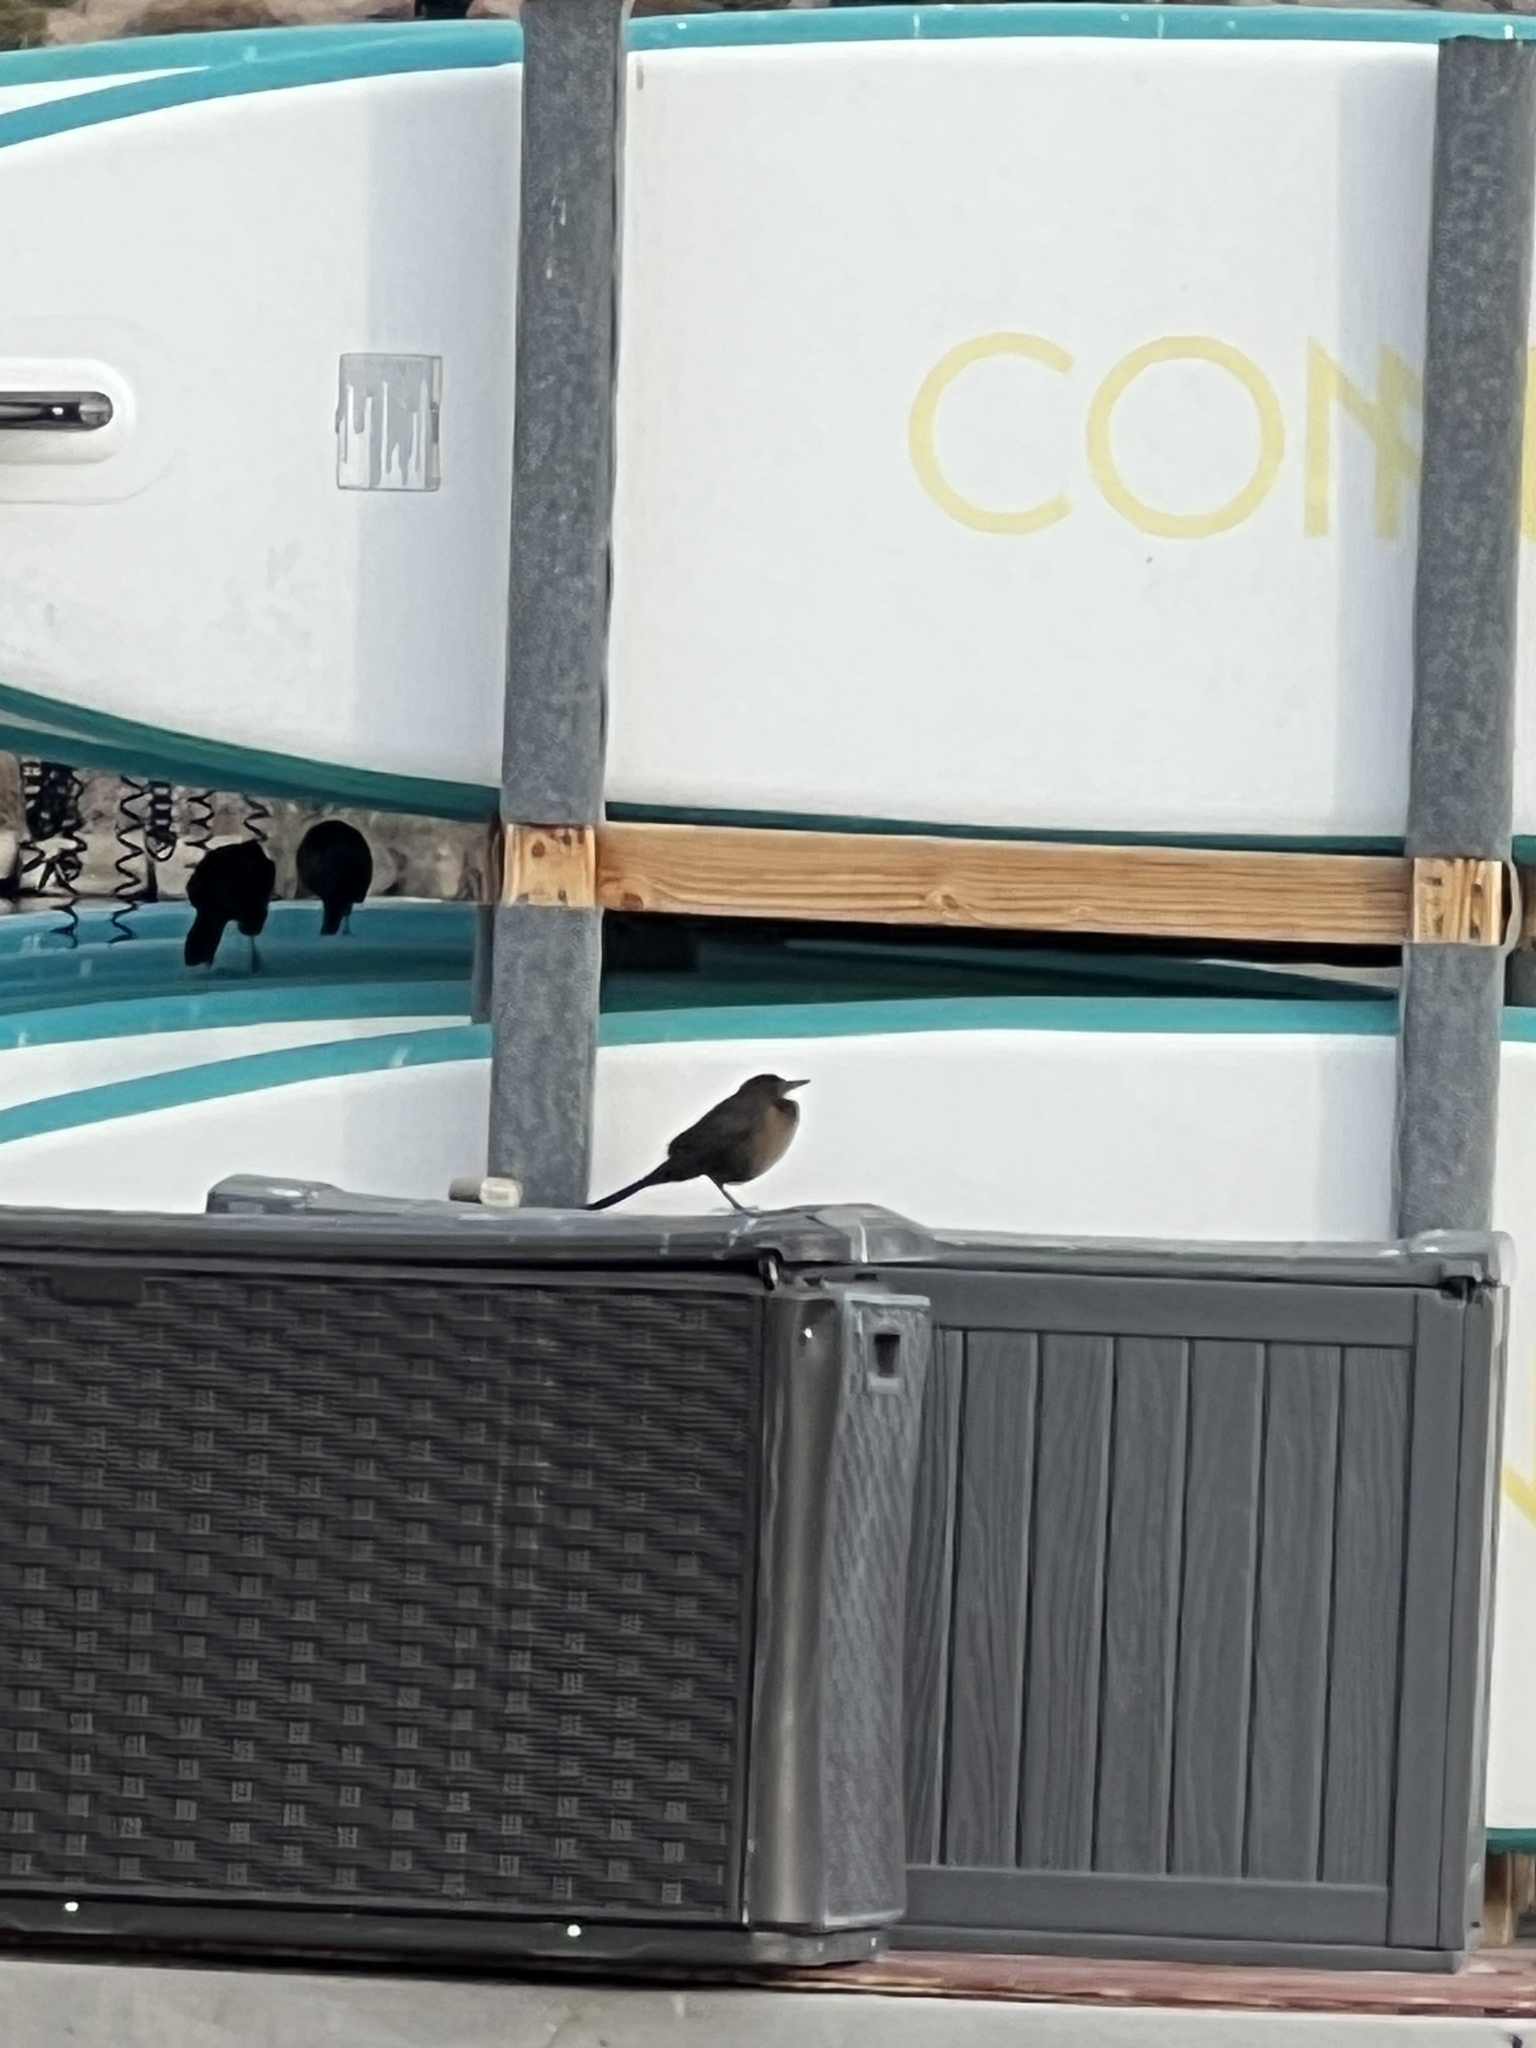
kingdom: Animalia
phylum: Chordata
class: Aves
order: Passeriformes
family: Icteridae
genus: Quiscalus
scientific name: Quiscalus mexicanus
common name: Great-tailed grackle
